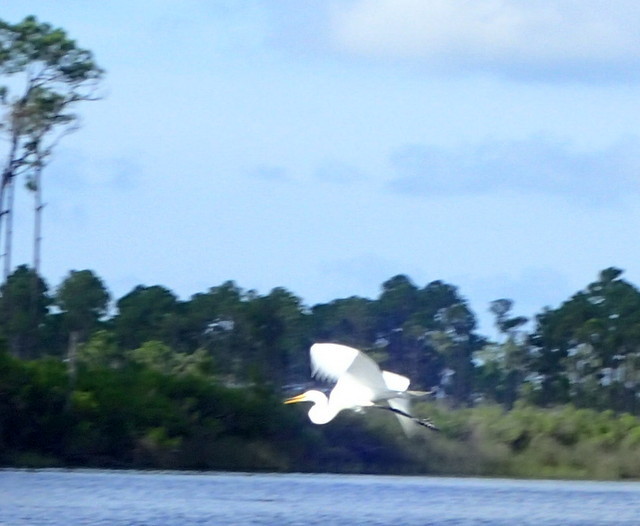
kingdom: Animalia
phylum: Chordata
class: Aves
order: Pelecaniformes
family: Ardeidae
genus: Ardea
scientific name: Ardea alba
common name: Great egret
